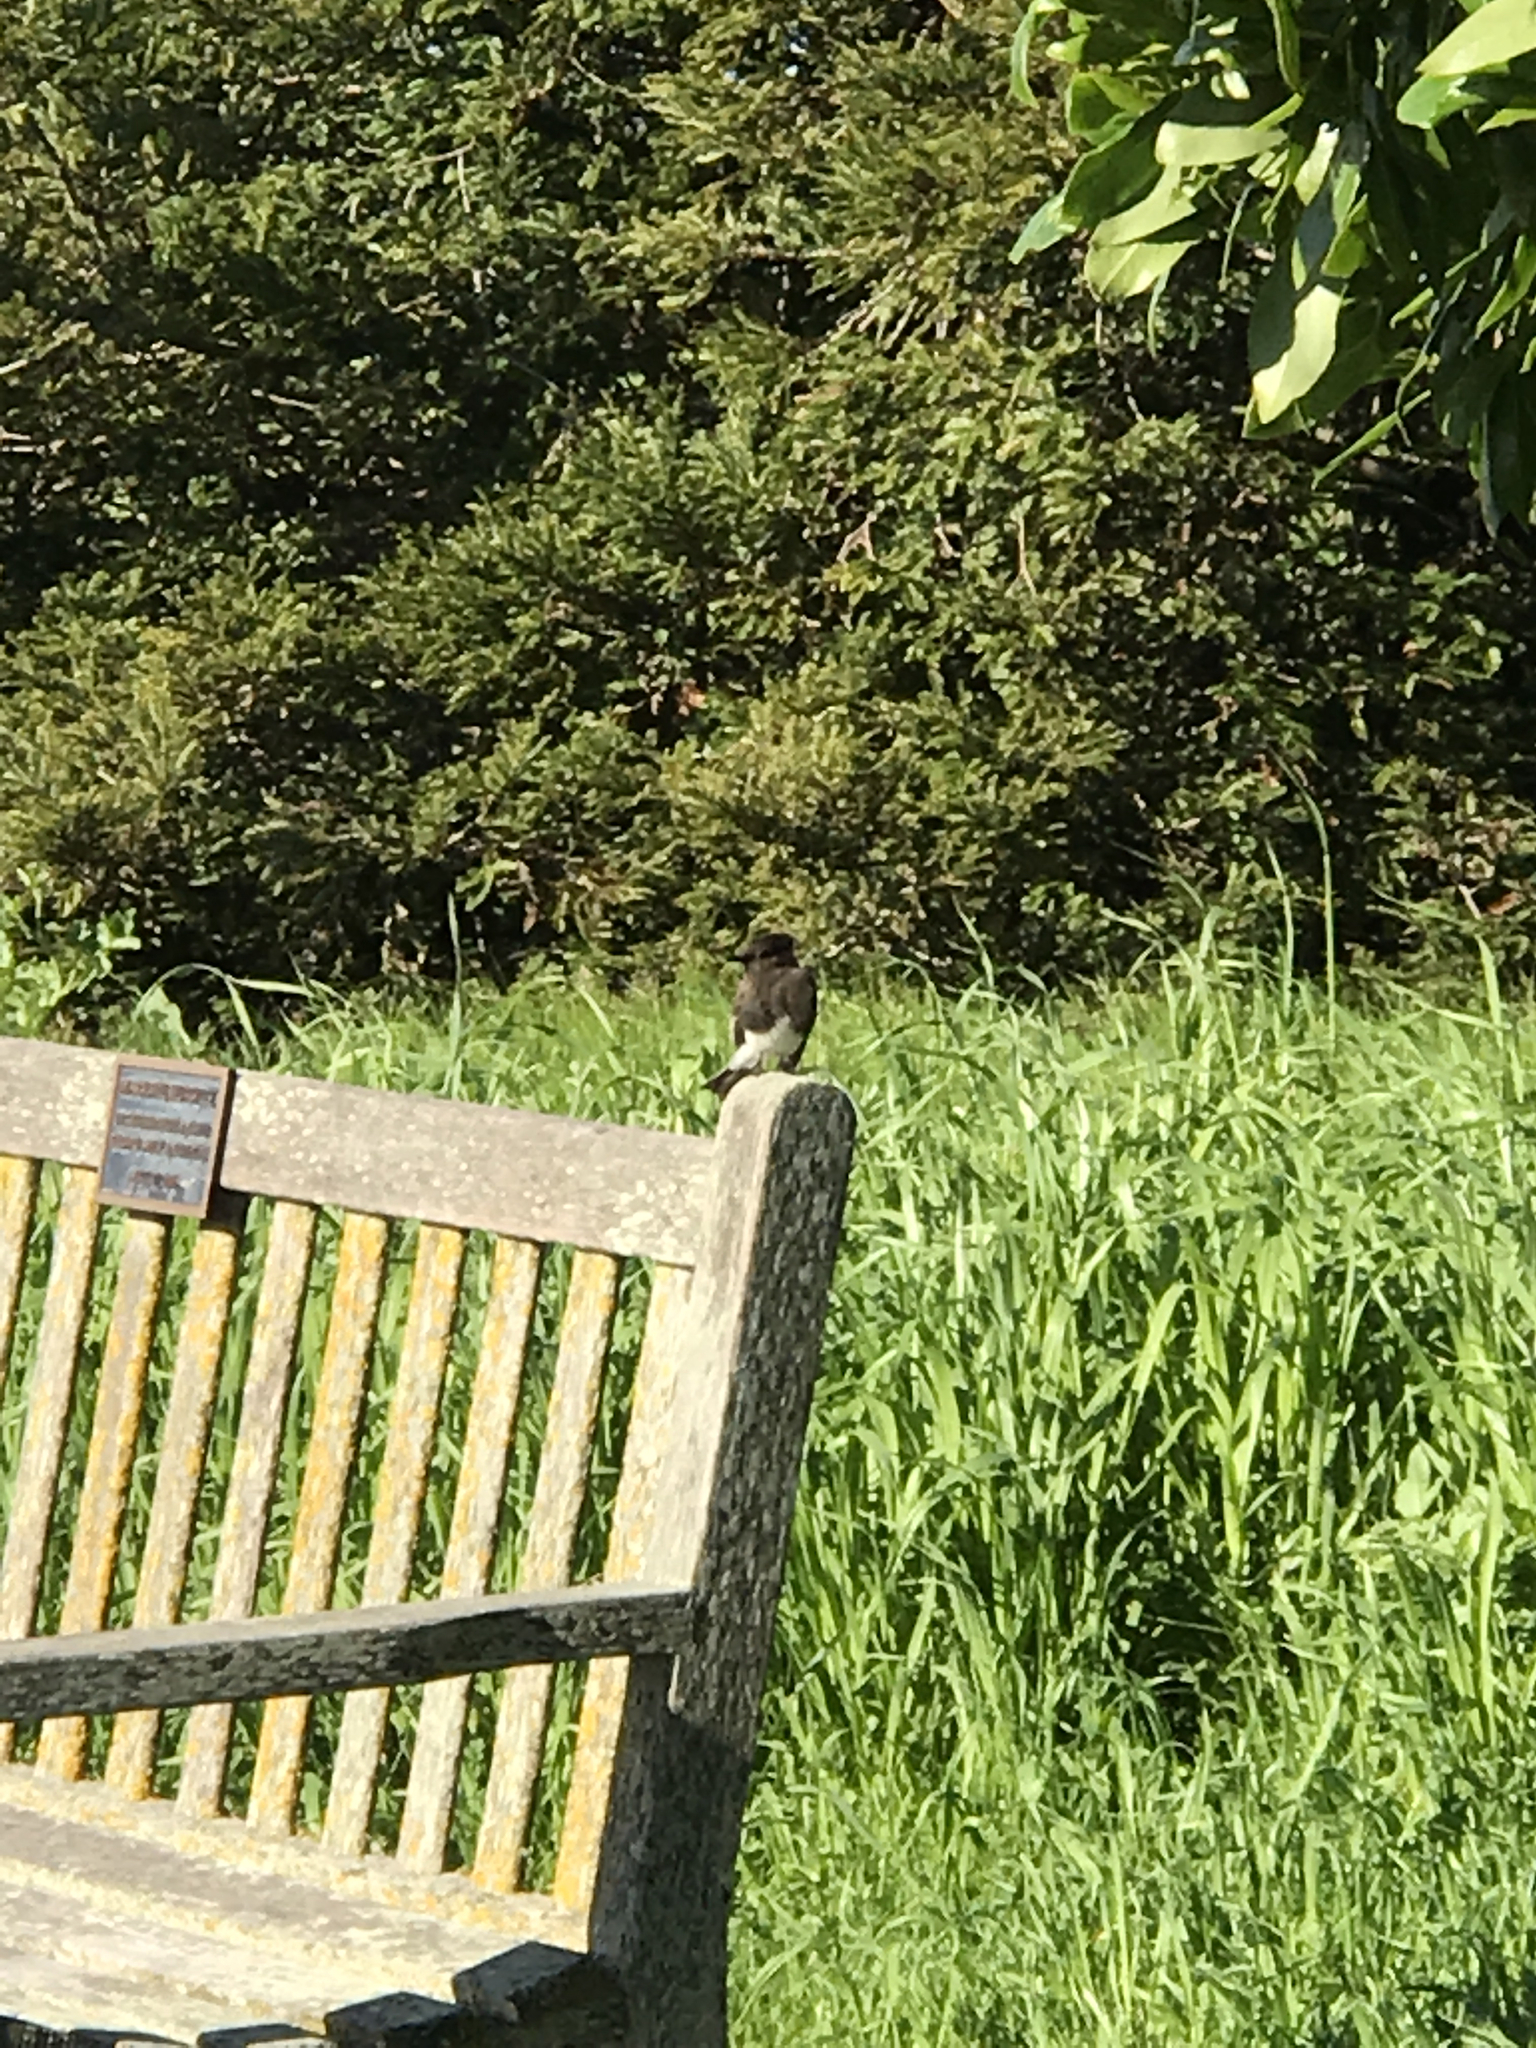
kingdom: Animalia
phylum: Chordata
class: Aves
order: Passeriformes
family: Tyrannidae
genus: Sayornis
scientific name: Sayornis nigricans
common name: Black phoebe
